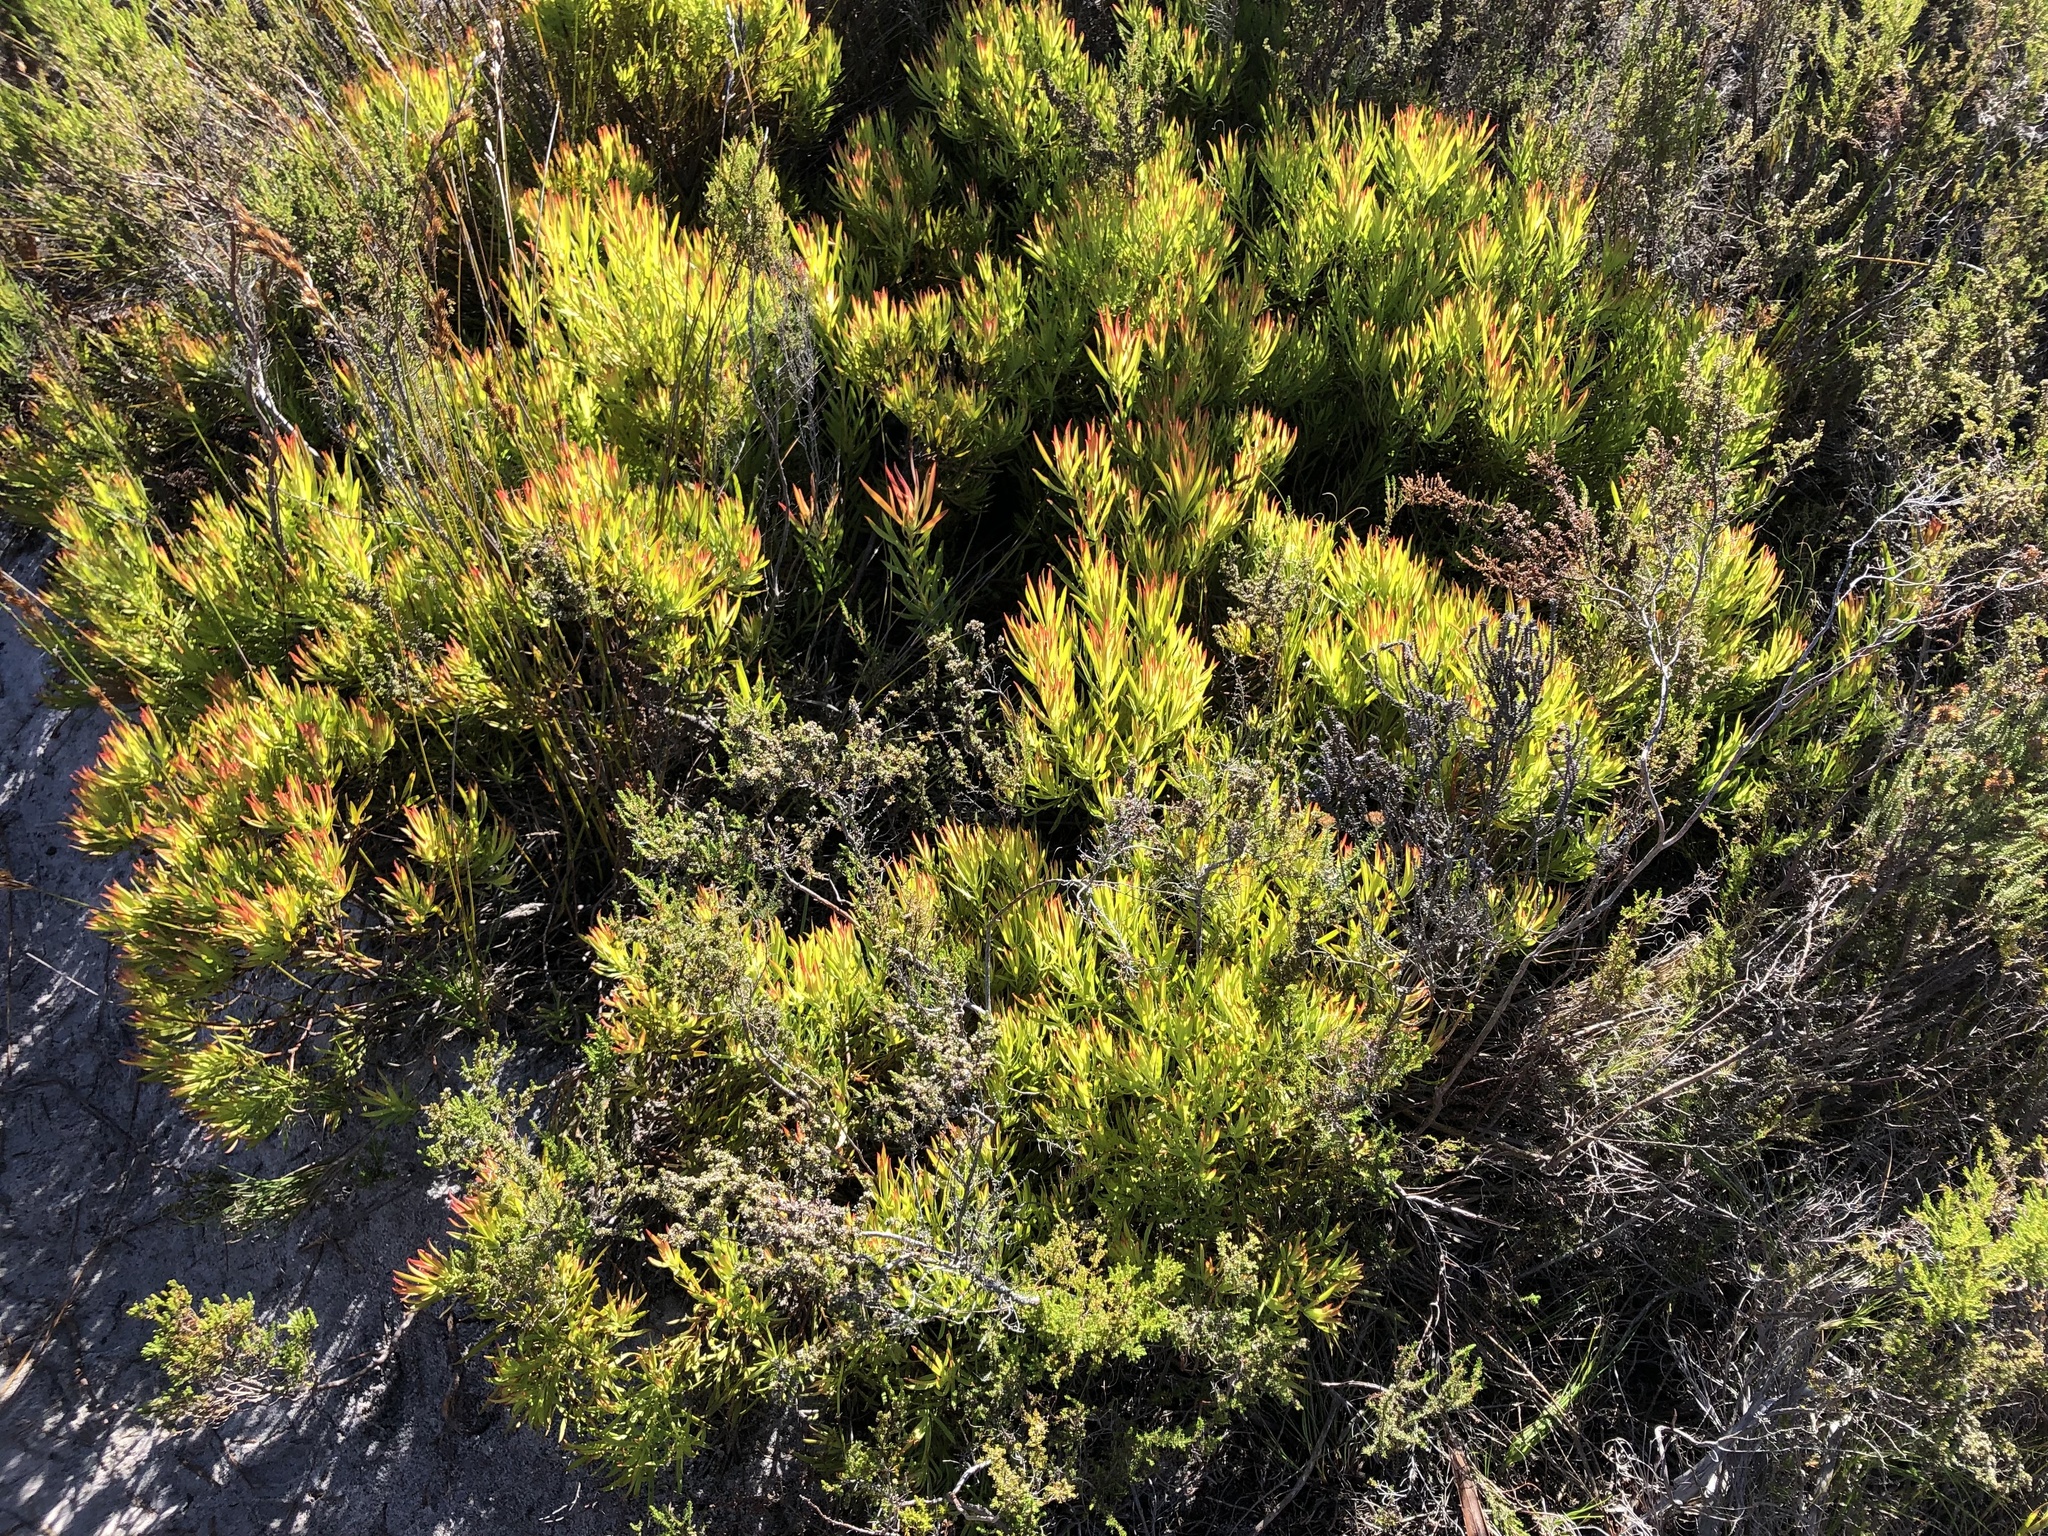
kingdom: Plantae
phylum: Tracheophyta
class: Magnoliopsida
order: Proteales
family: Proteaceae
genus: Leucadendron
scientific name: Leucadendron salignum
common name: Common sunshine conebush
